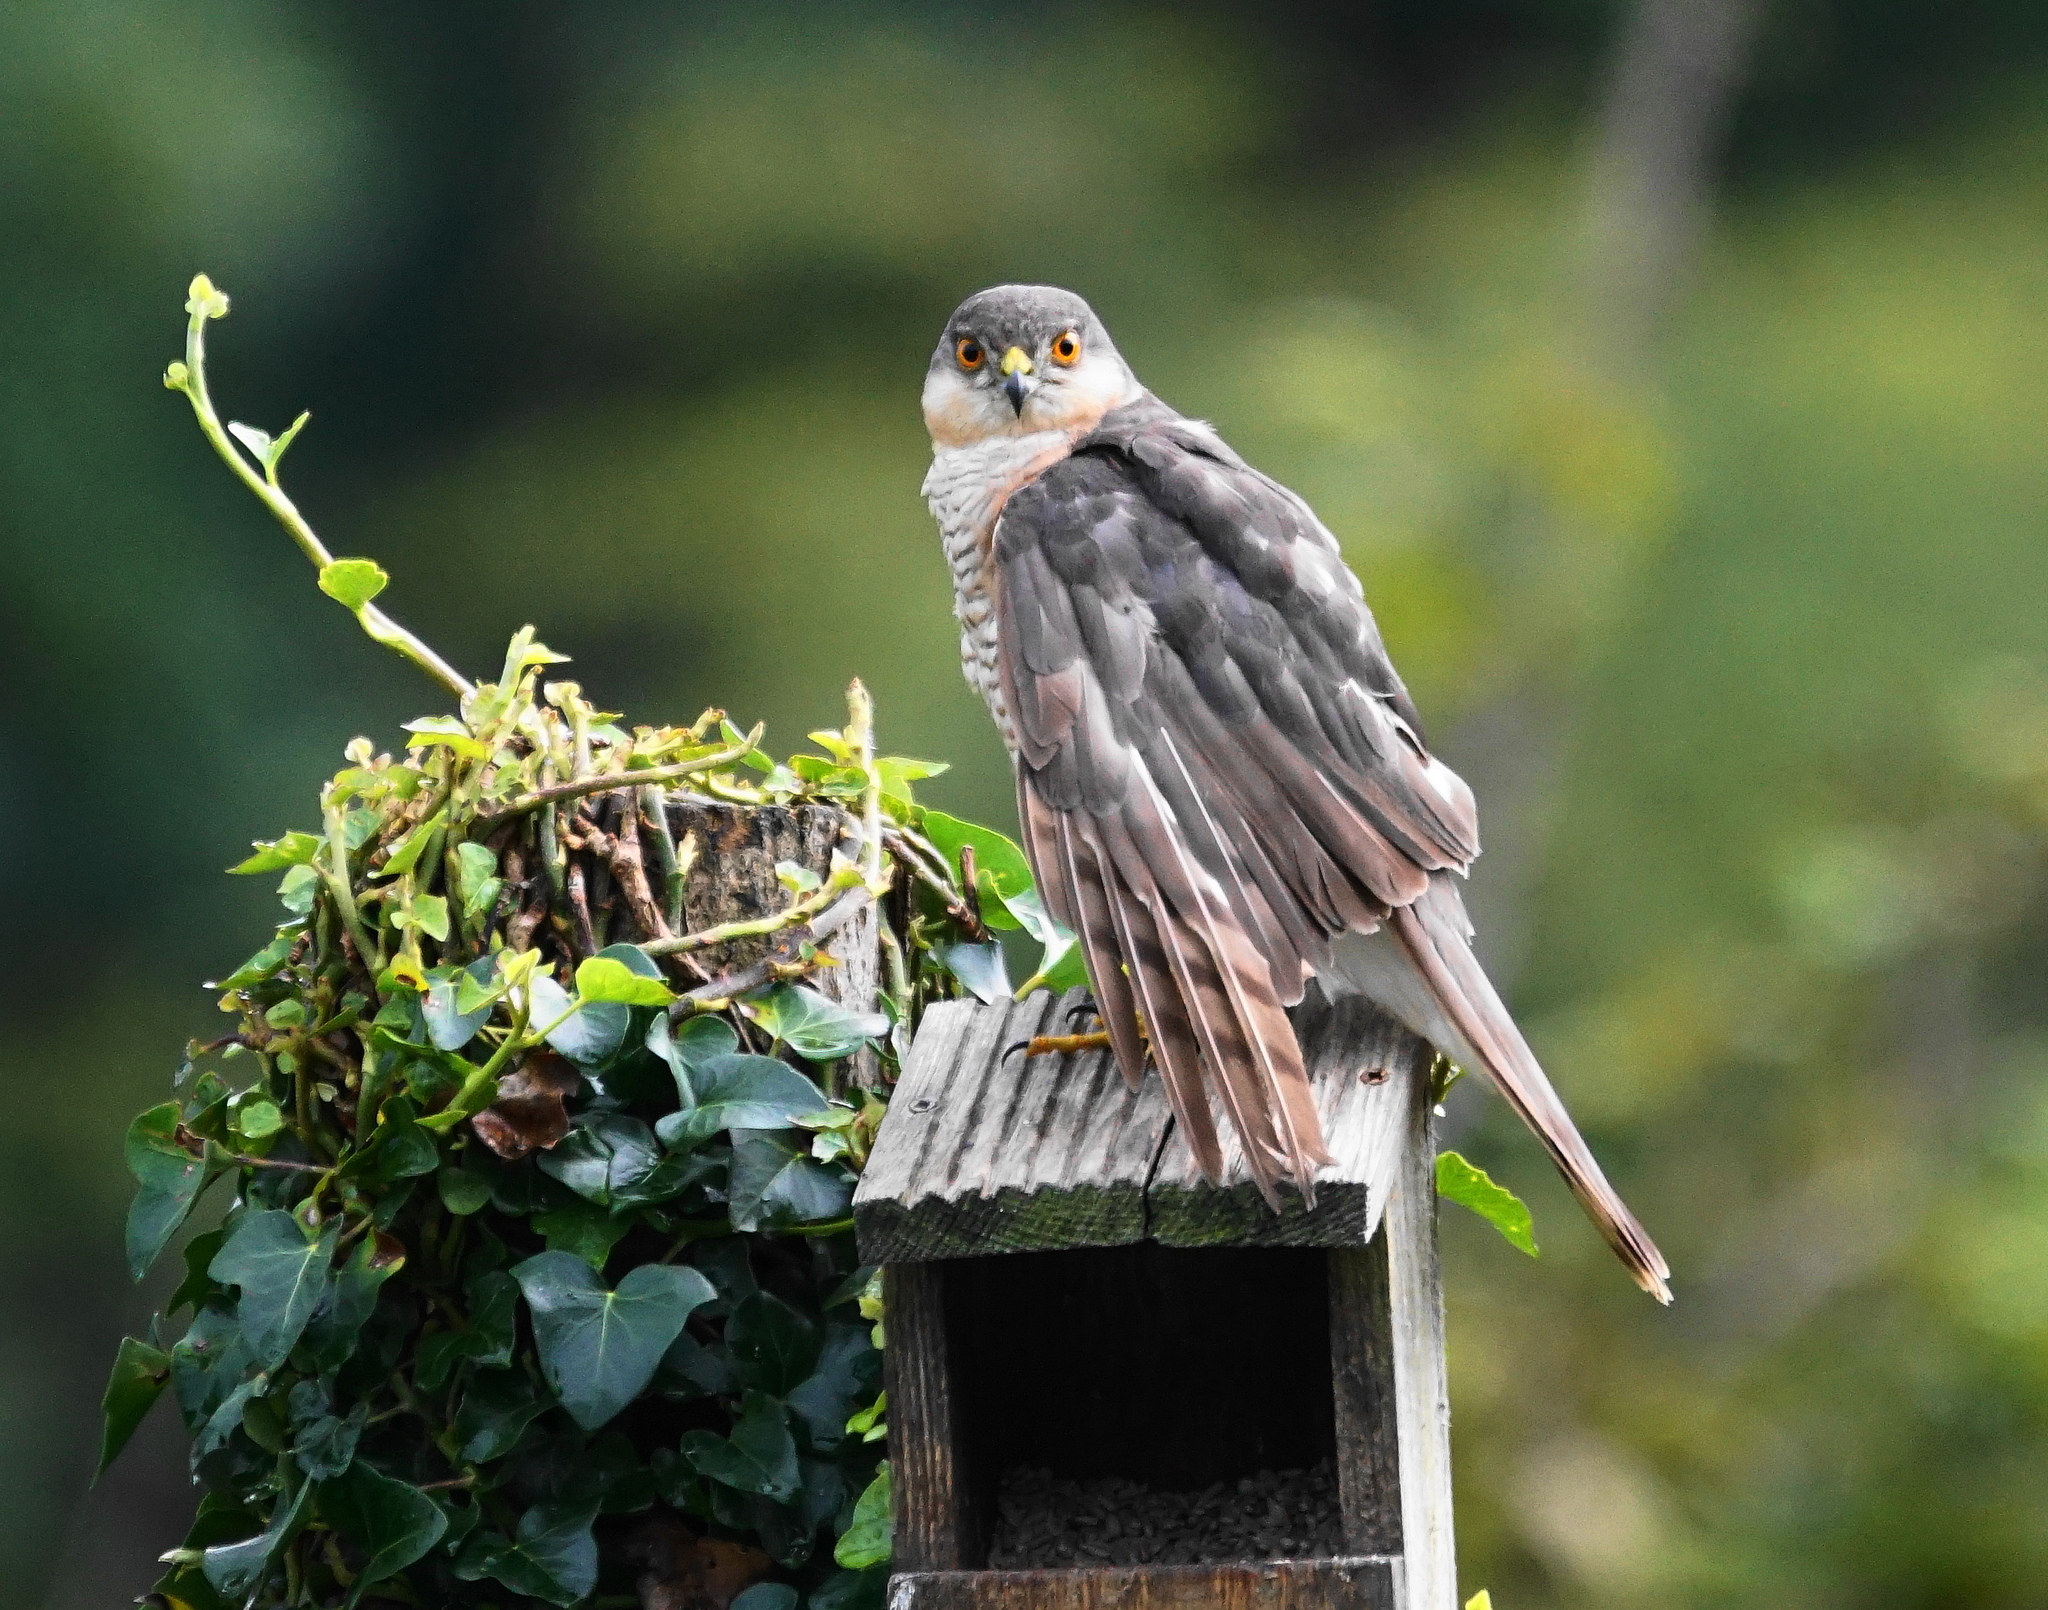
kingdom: Animalia
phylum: Chordata
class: Aves
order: Accipitriformes
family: Accipitridae
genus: Accipiter
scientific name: Accipiter nisus
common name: Eurasian sparrowhawk
